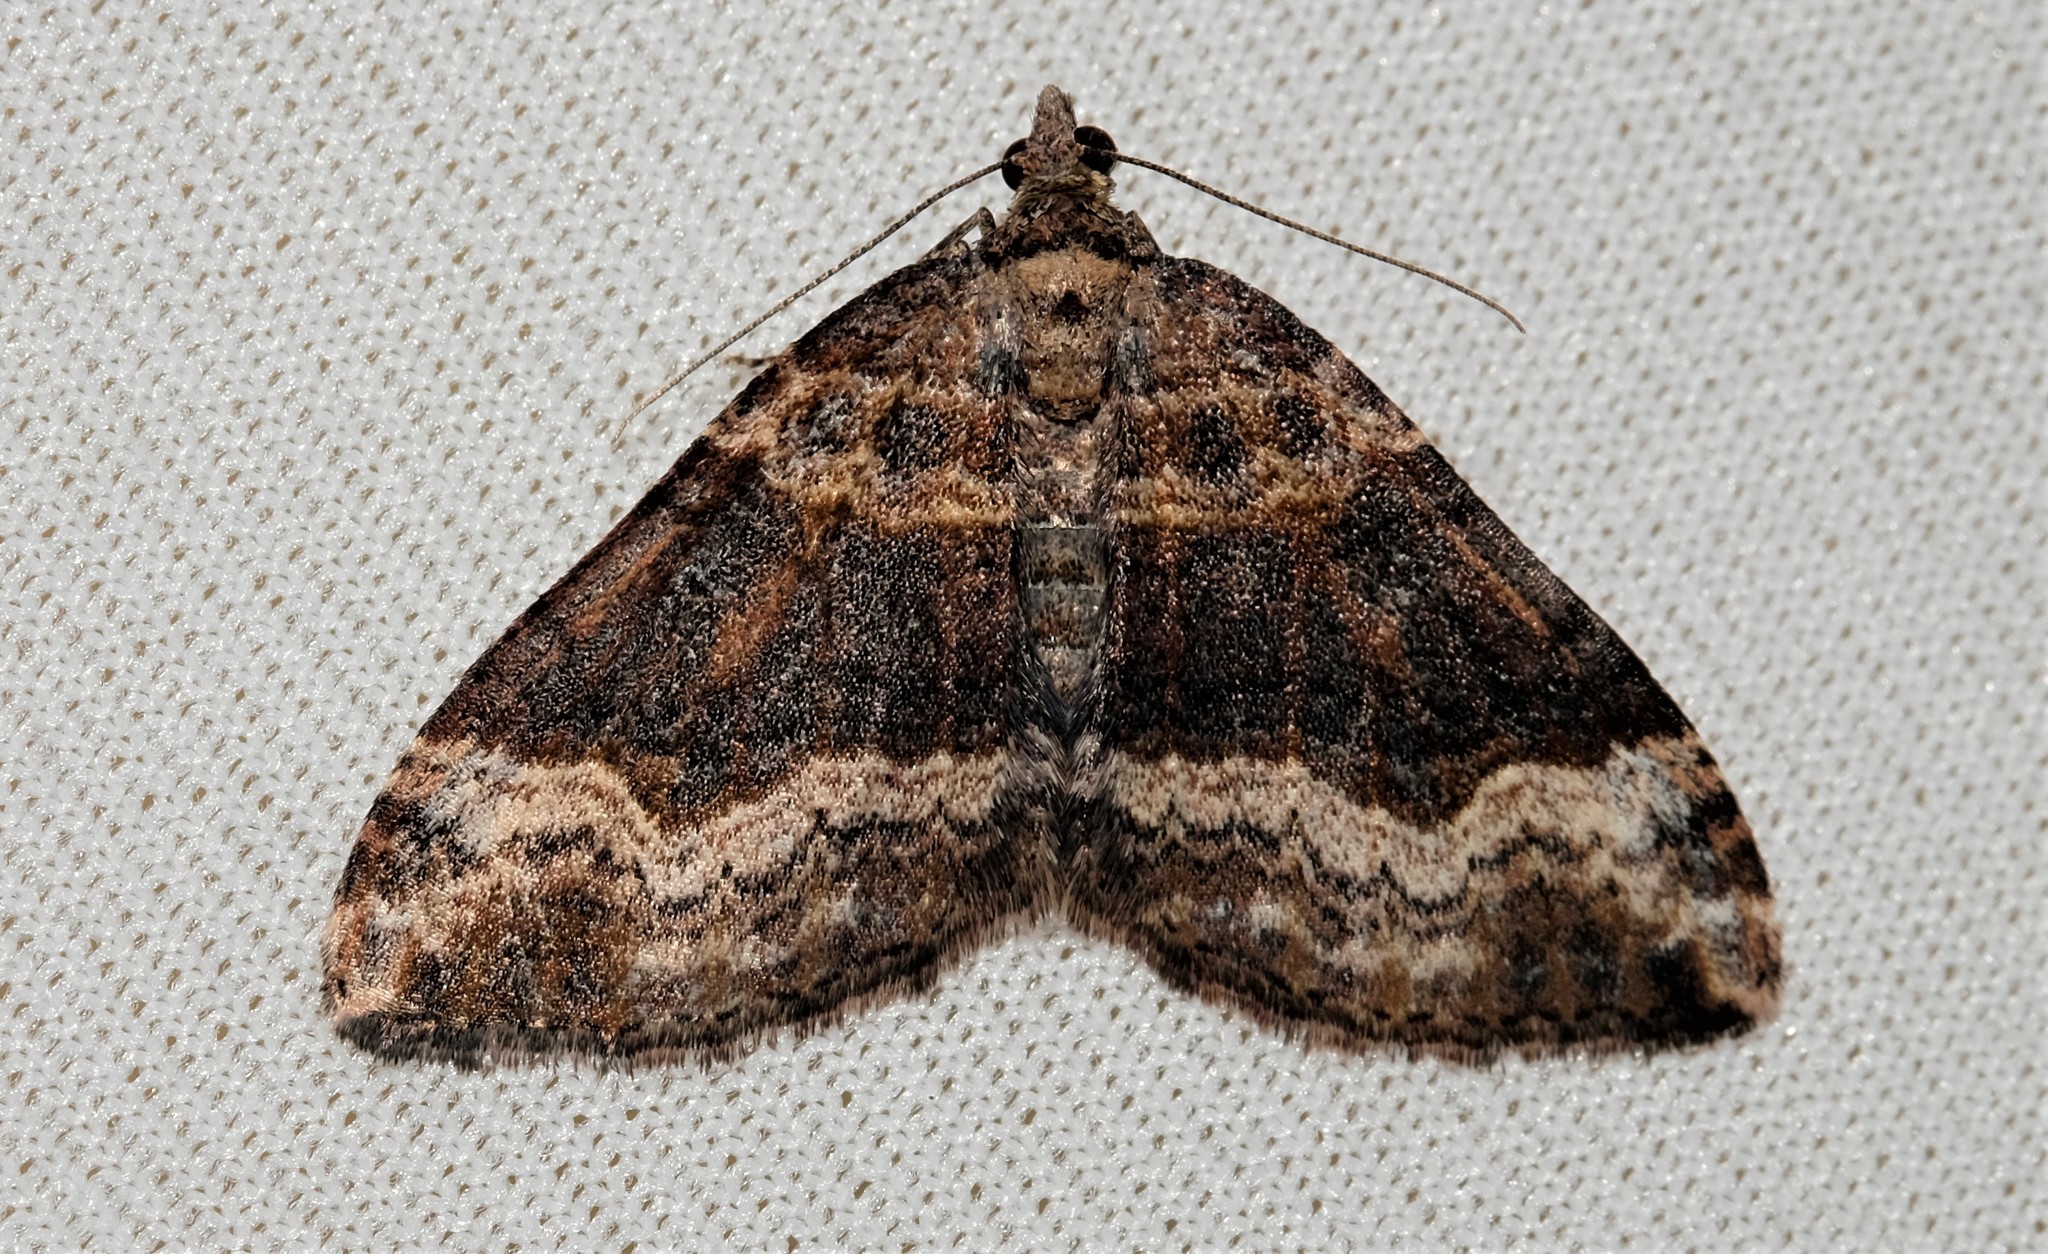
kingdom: Animalia
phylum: Arthropoda
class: Insecta
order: Lepidoptera
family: Geometridae
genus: Epyaxa
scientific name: Epyaxa subidaria
